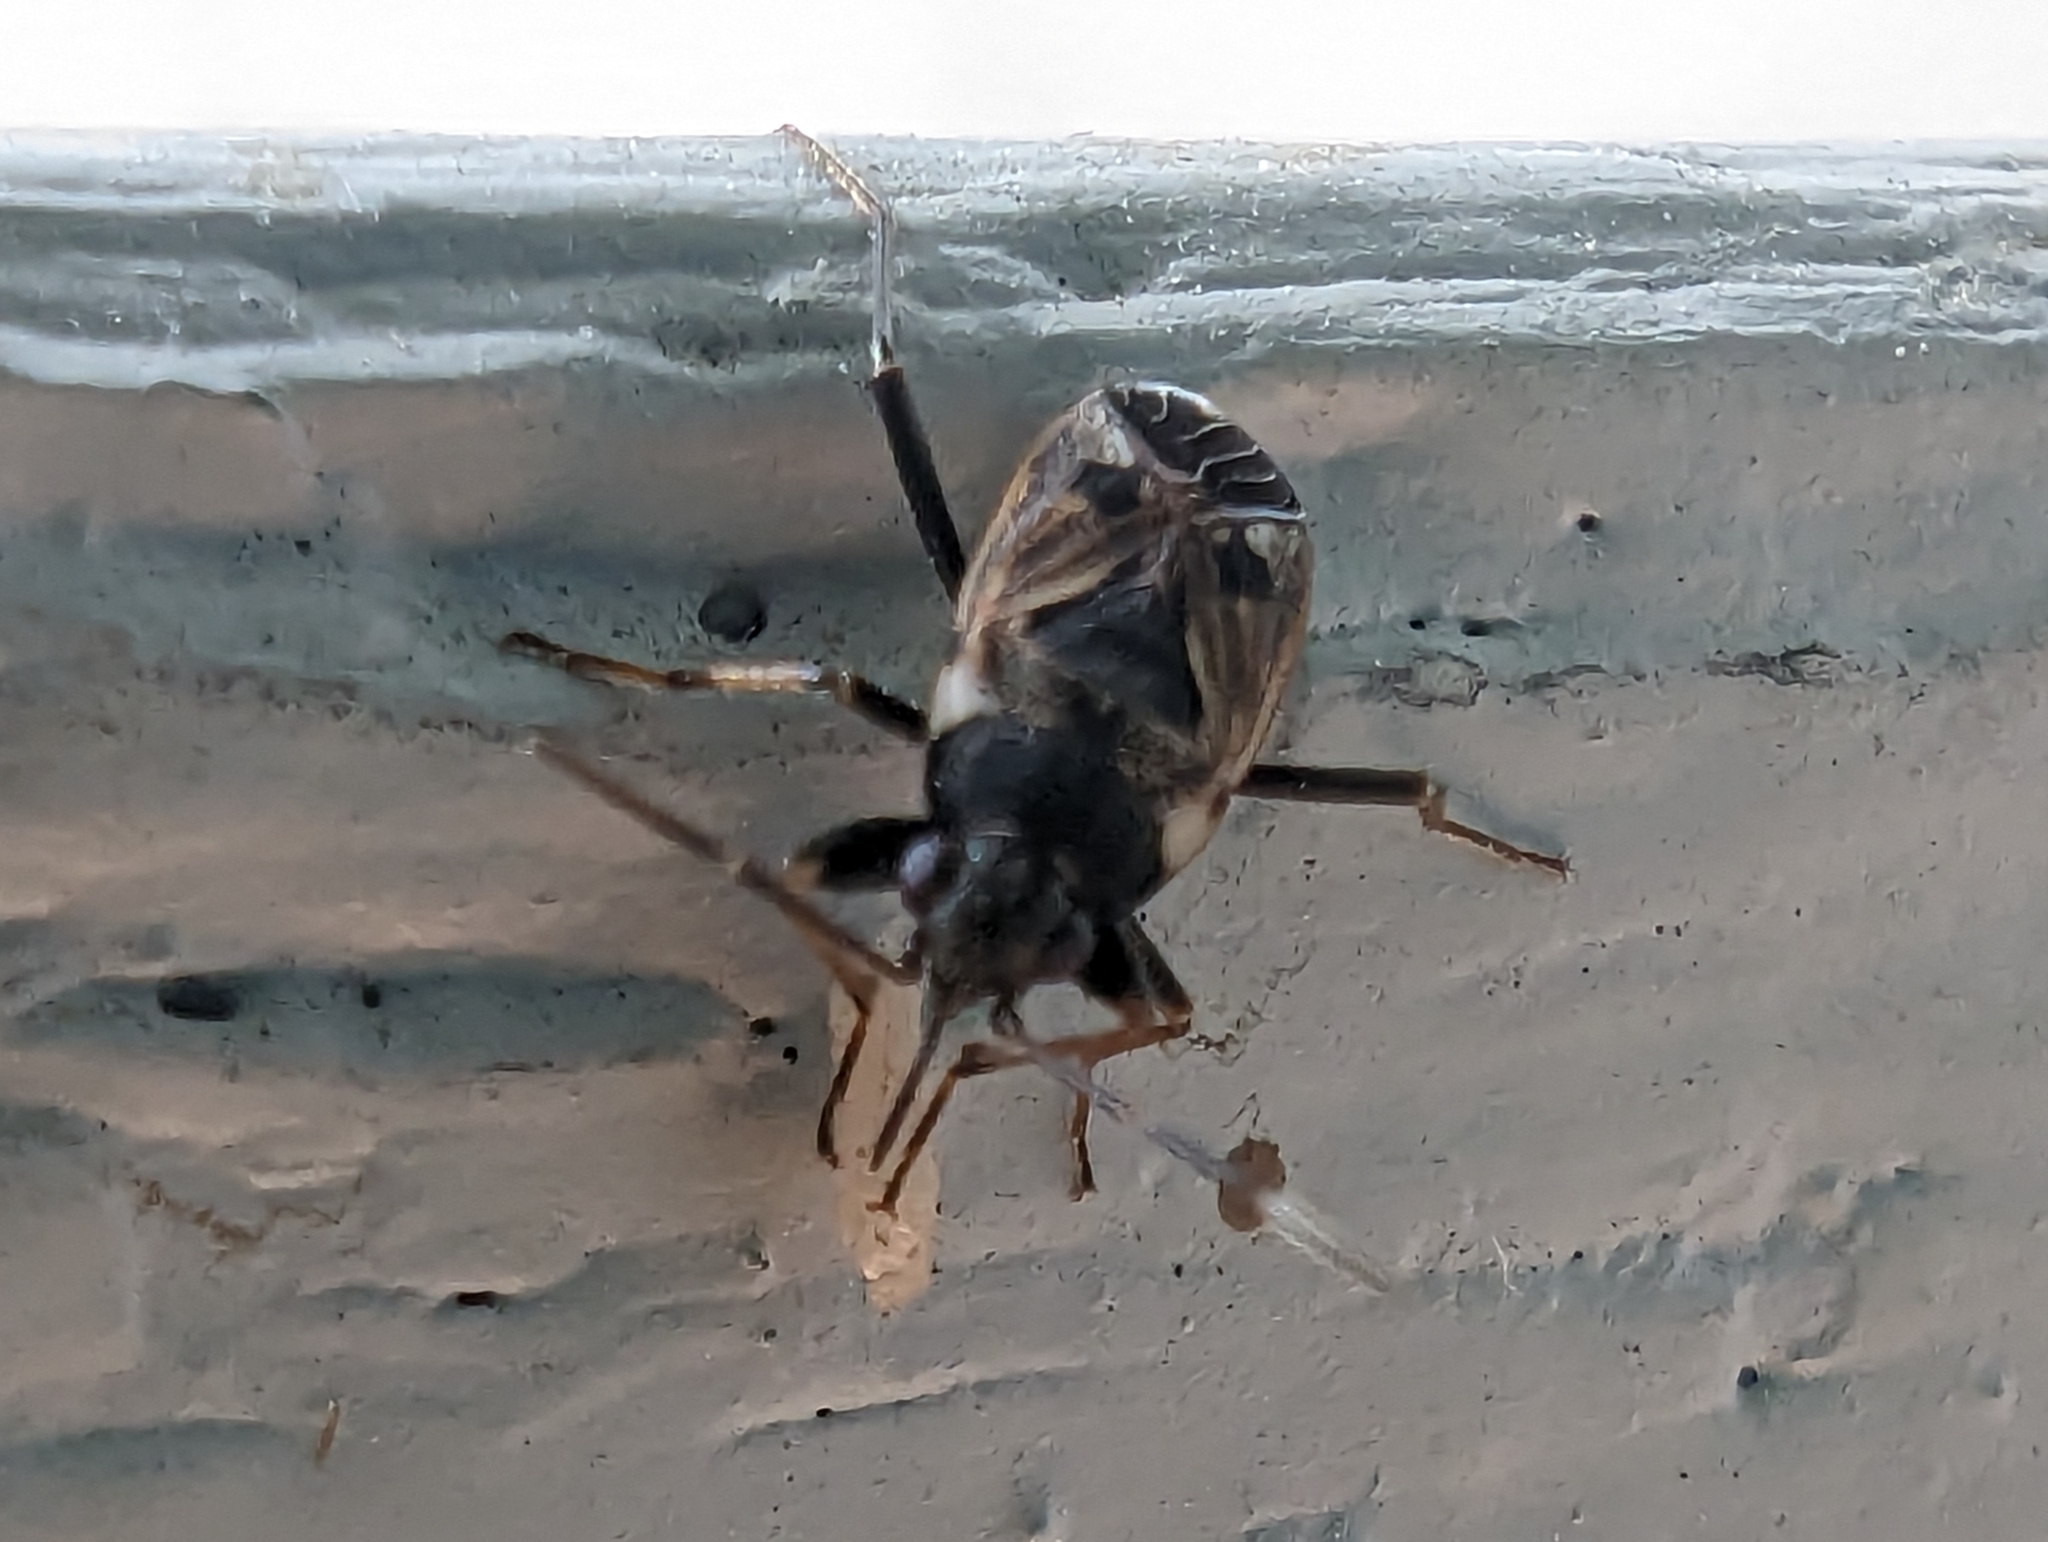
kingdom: Animalia
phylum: Arthropoda
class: Insecta
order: Hemiptera
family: Rhyparochromidae
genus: Rhyparochromus
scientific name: Rhyparochromus vulgaris
